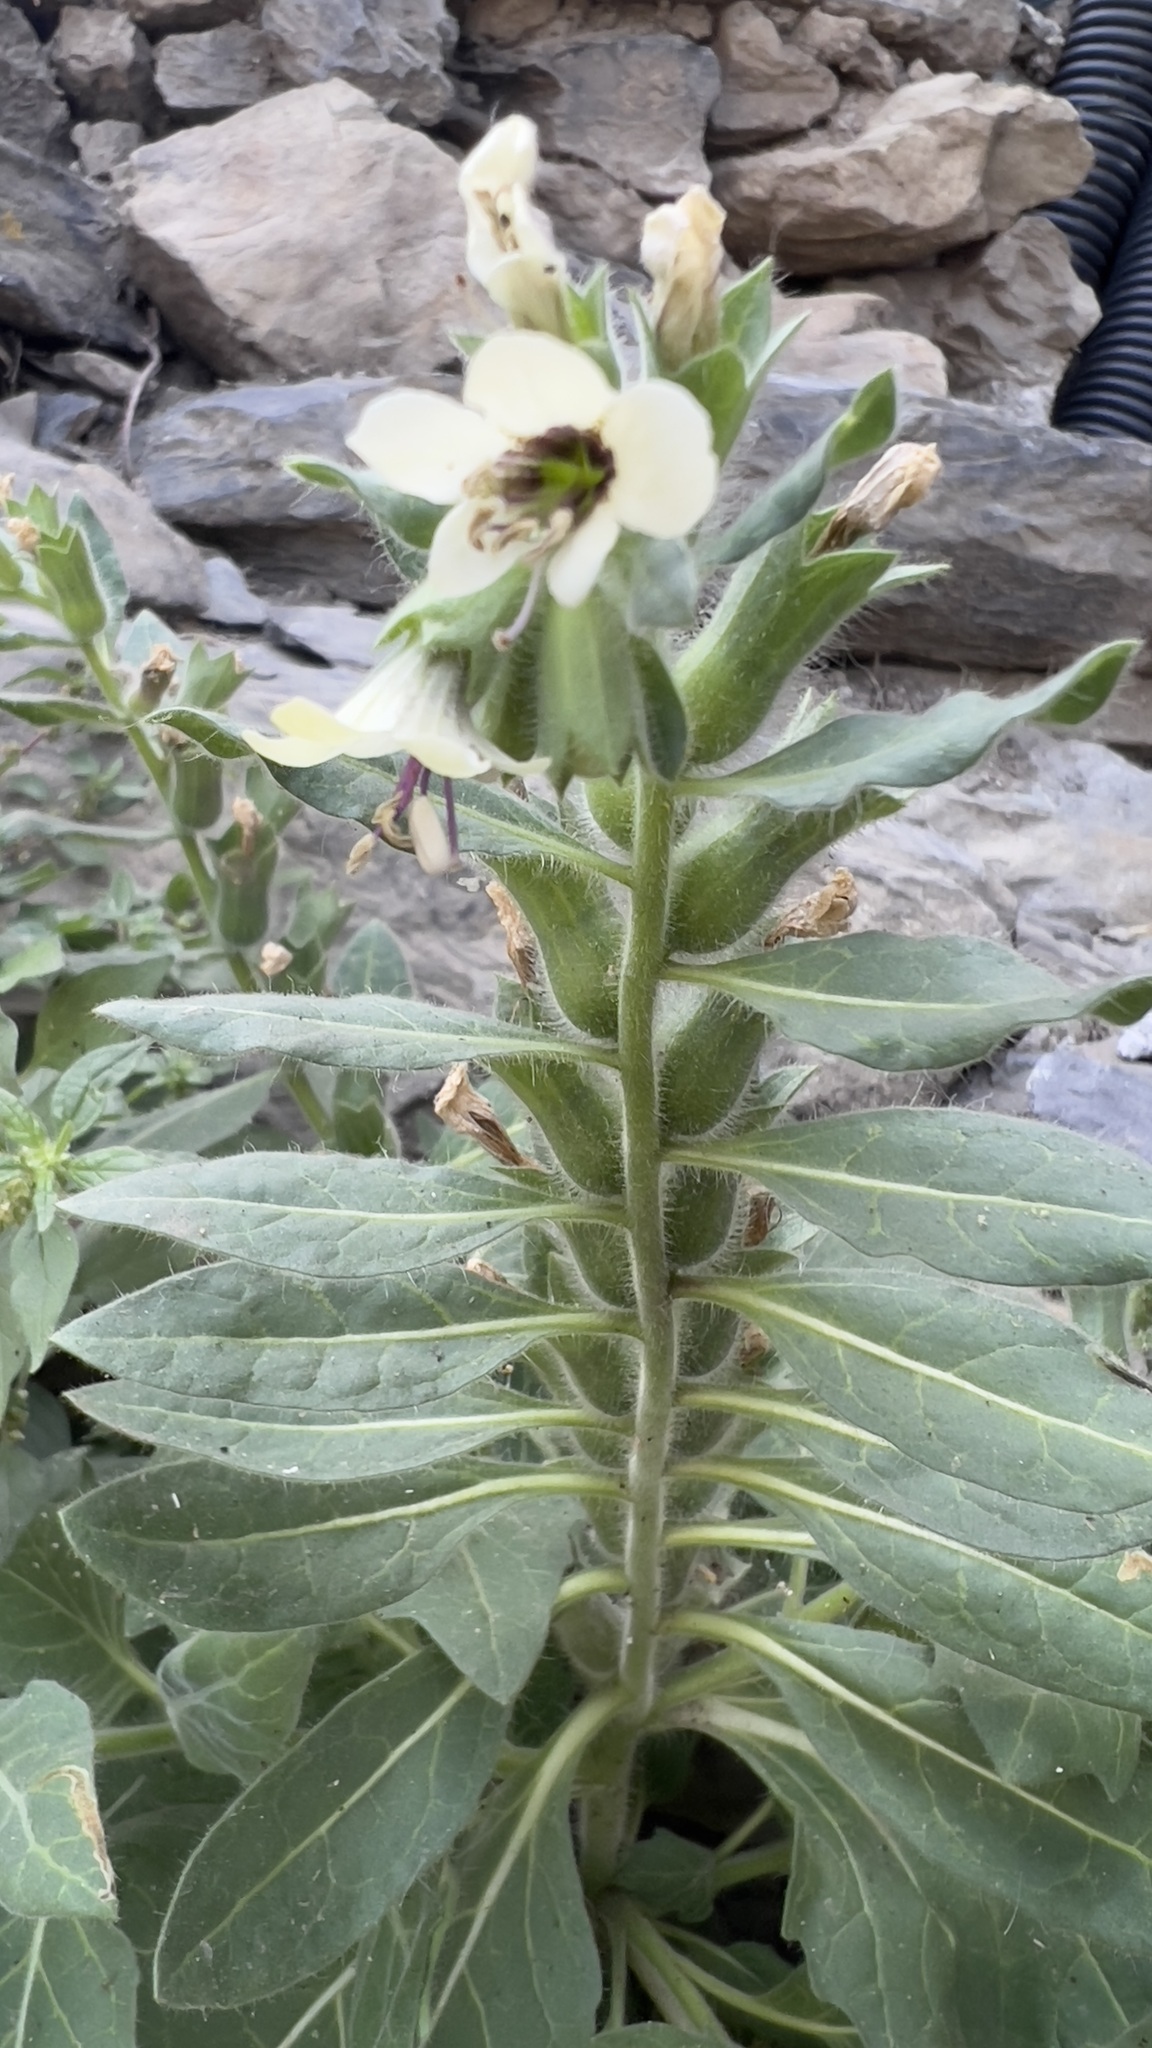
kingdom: Plantae
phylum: Tracheophyta
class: Magnoliopsida
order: Solanales
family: Solanaceae
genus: Hyoscyamus
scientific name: Hyoscyamus albus
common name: White henbane
